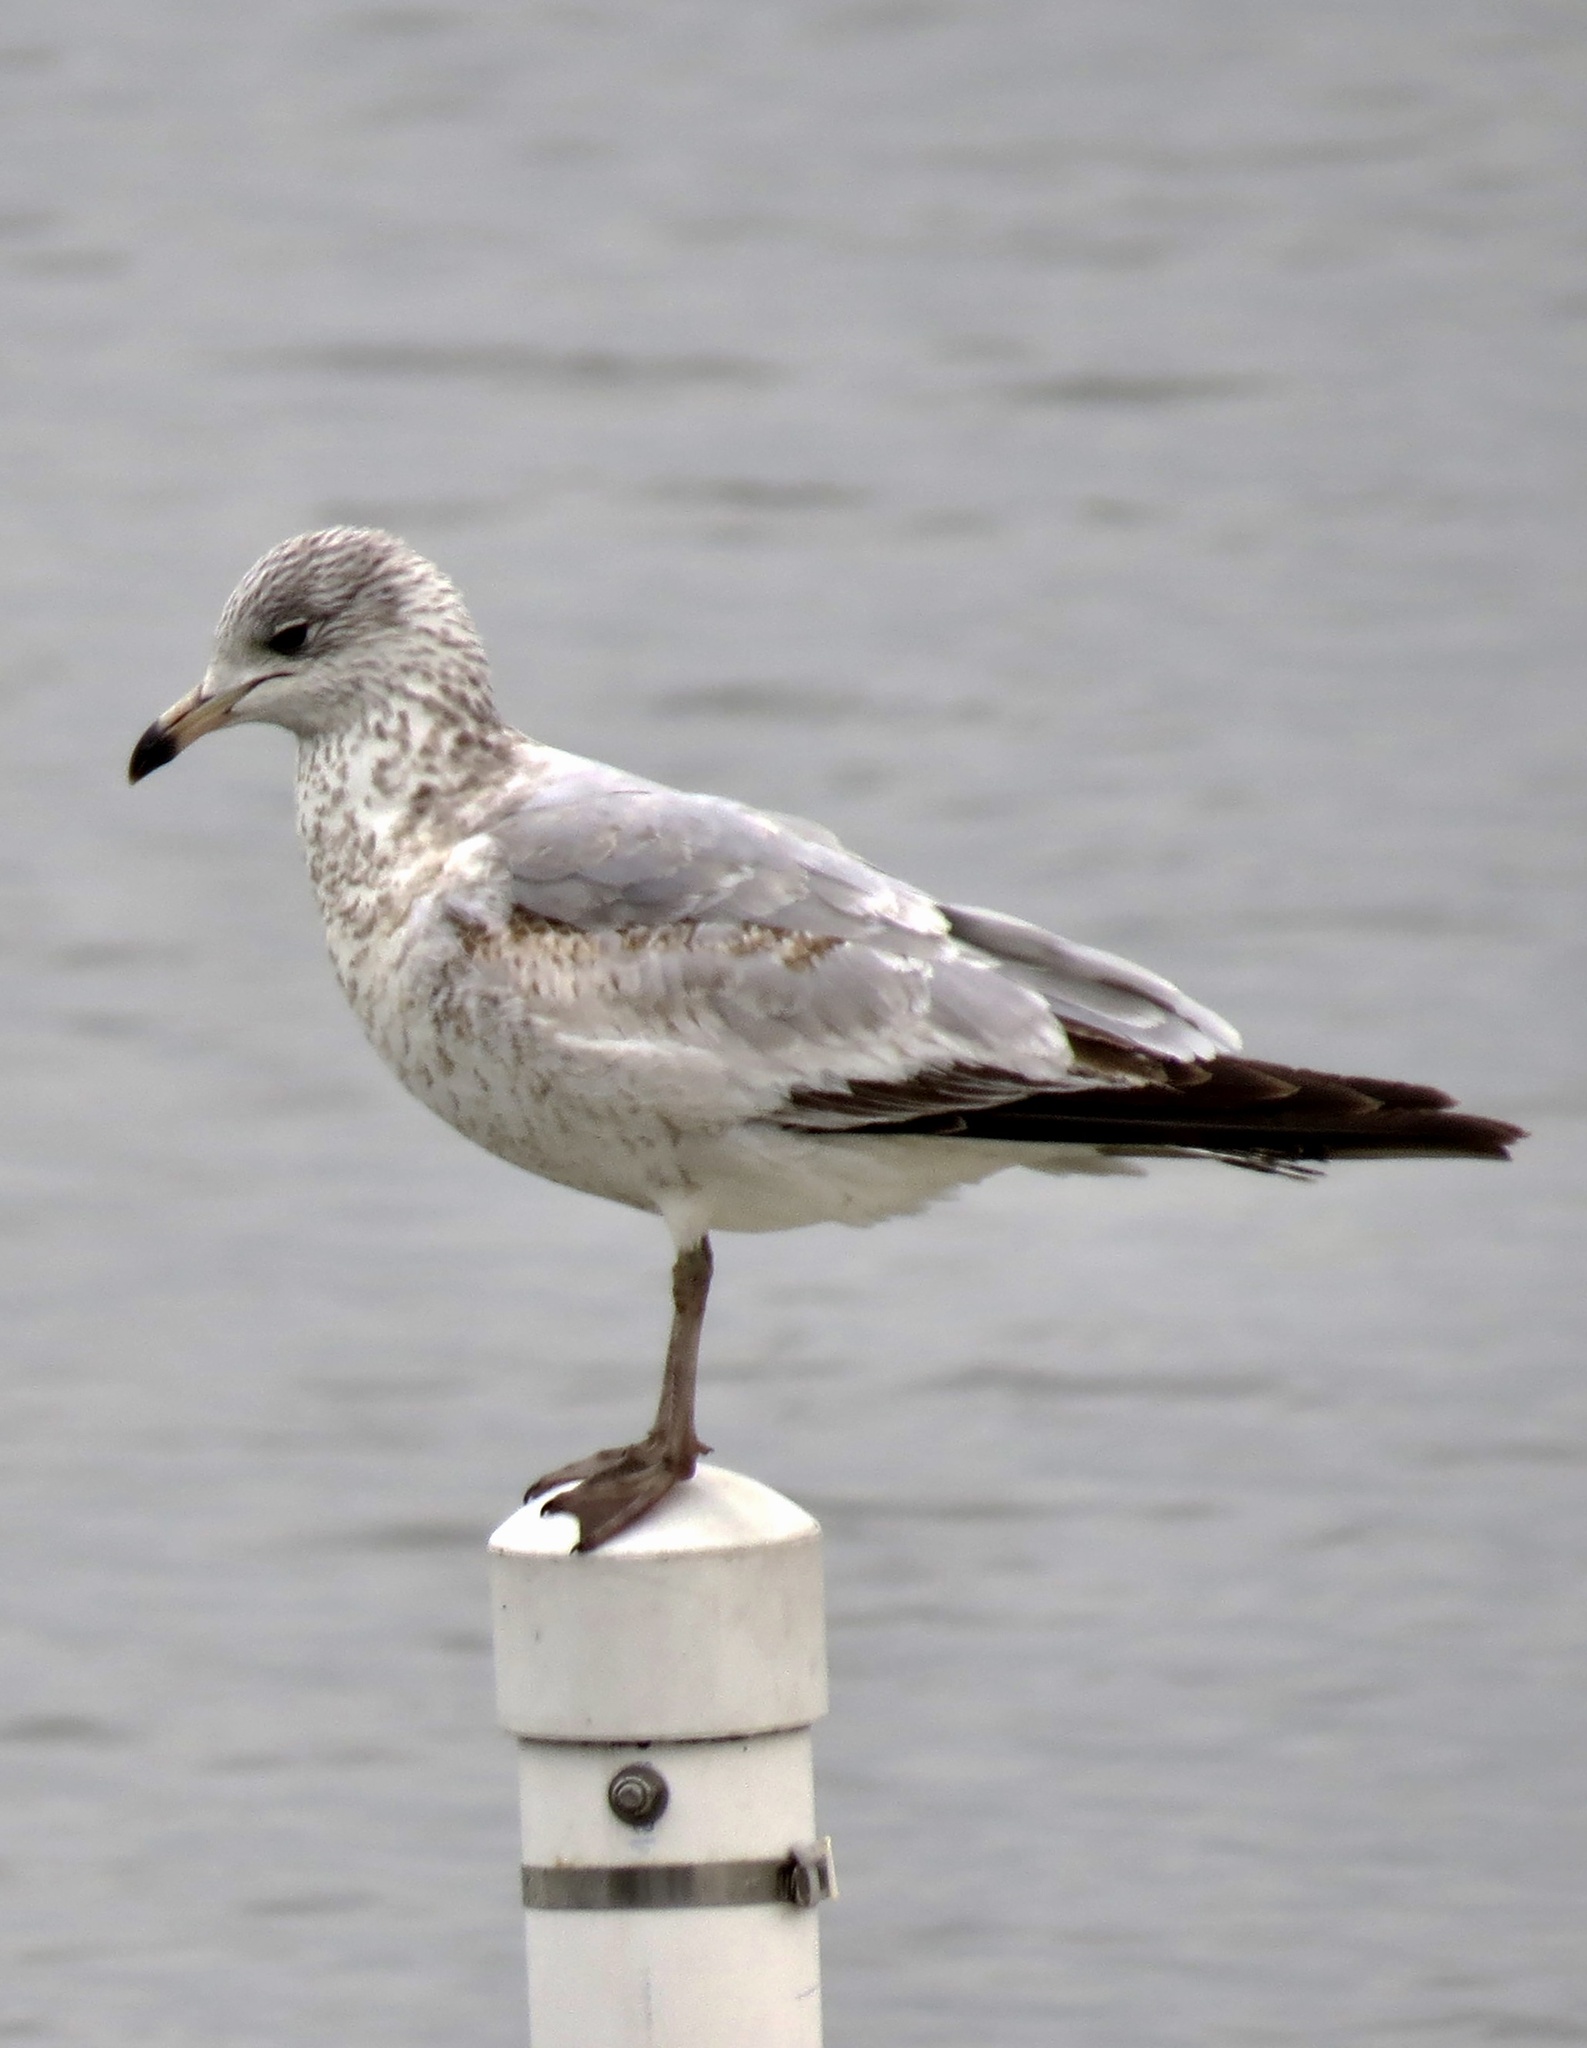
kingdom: Animalia
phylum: Chordata
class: Aves
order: Charadriiformes
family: Laridae
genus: Larus
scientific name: Larus delawarensis
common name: Ring-billed gull
